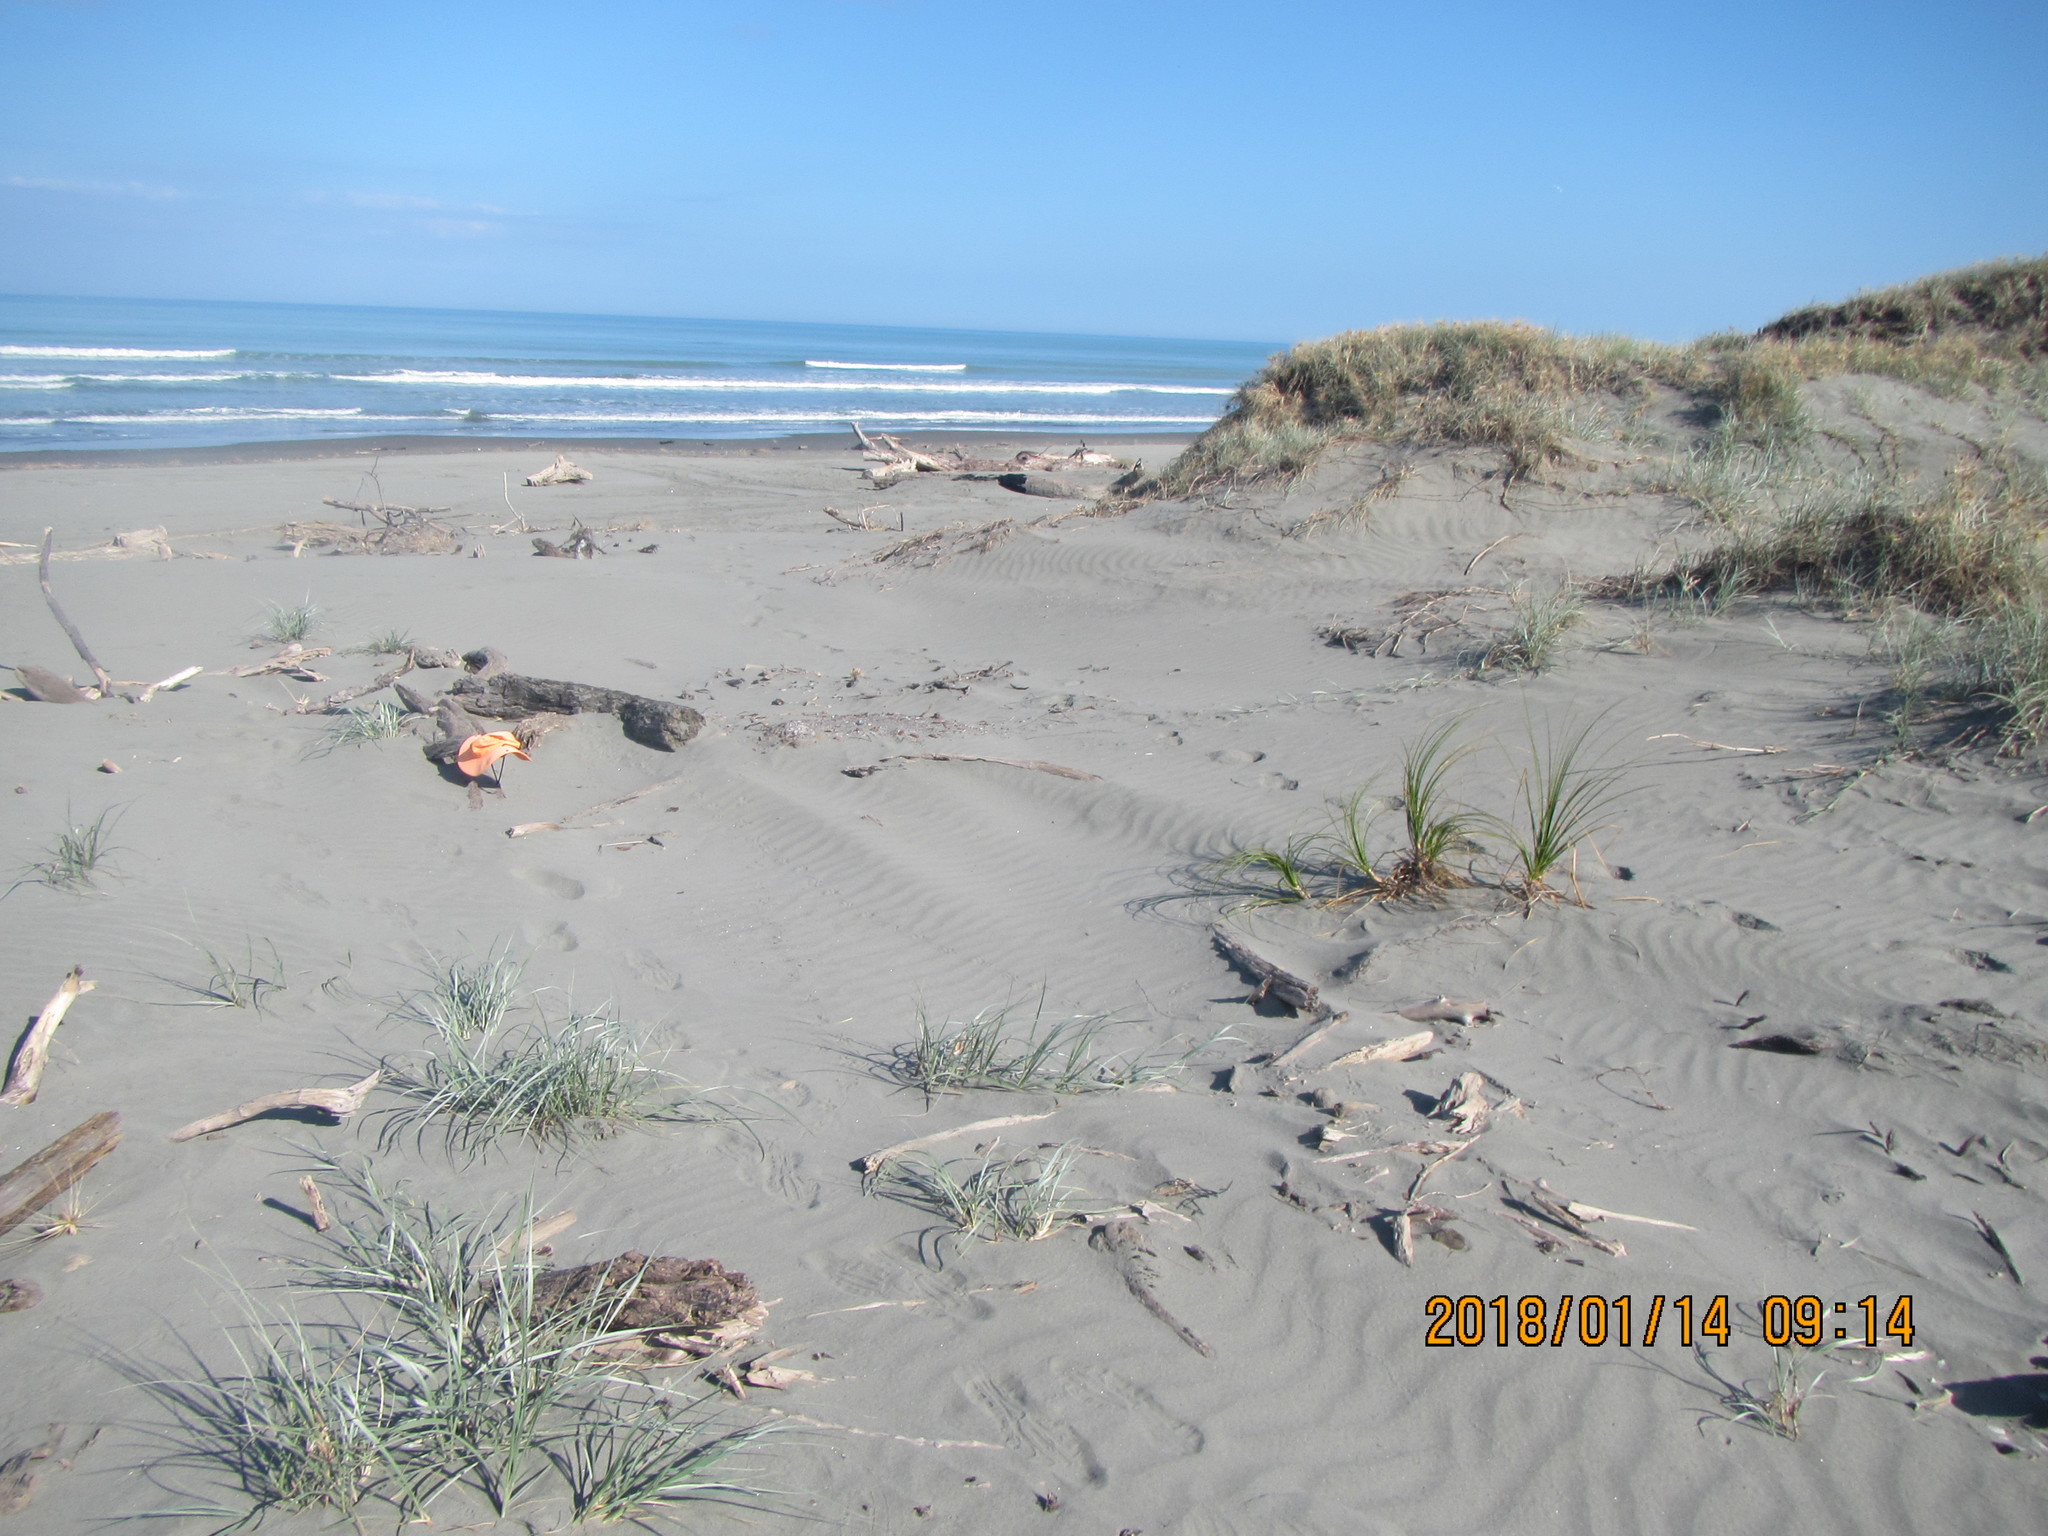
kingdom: Animalia
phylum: Arthropoda
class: Insecta
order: Coleoptera
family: Curculionidae
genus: Mesites
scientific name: Mesites pallidipennis
